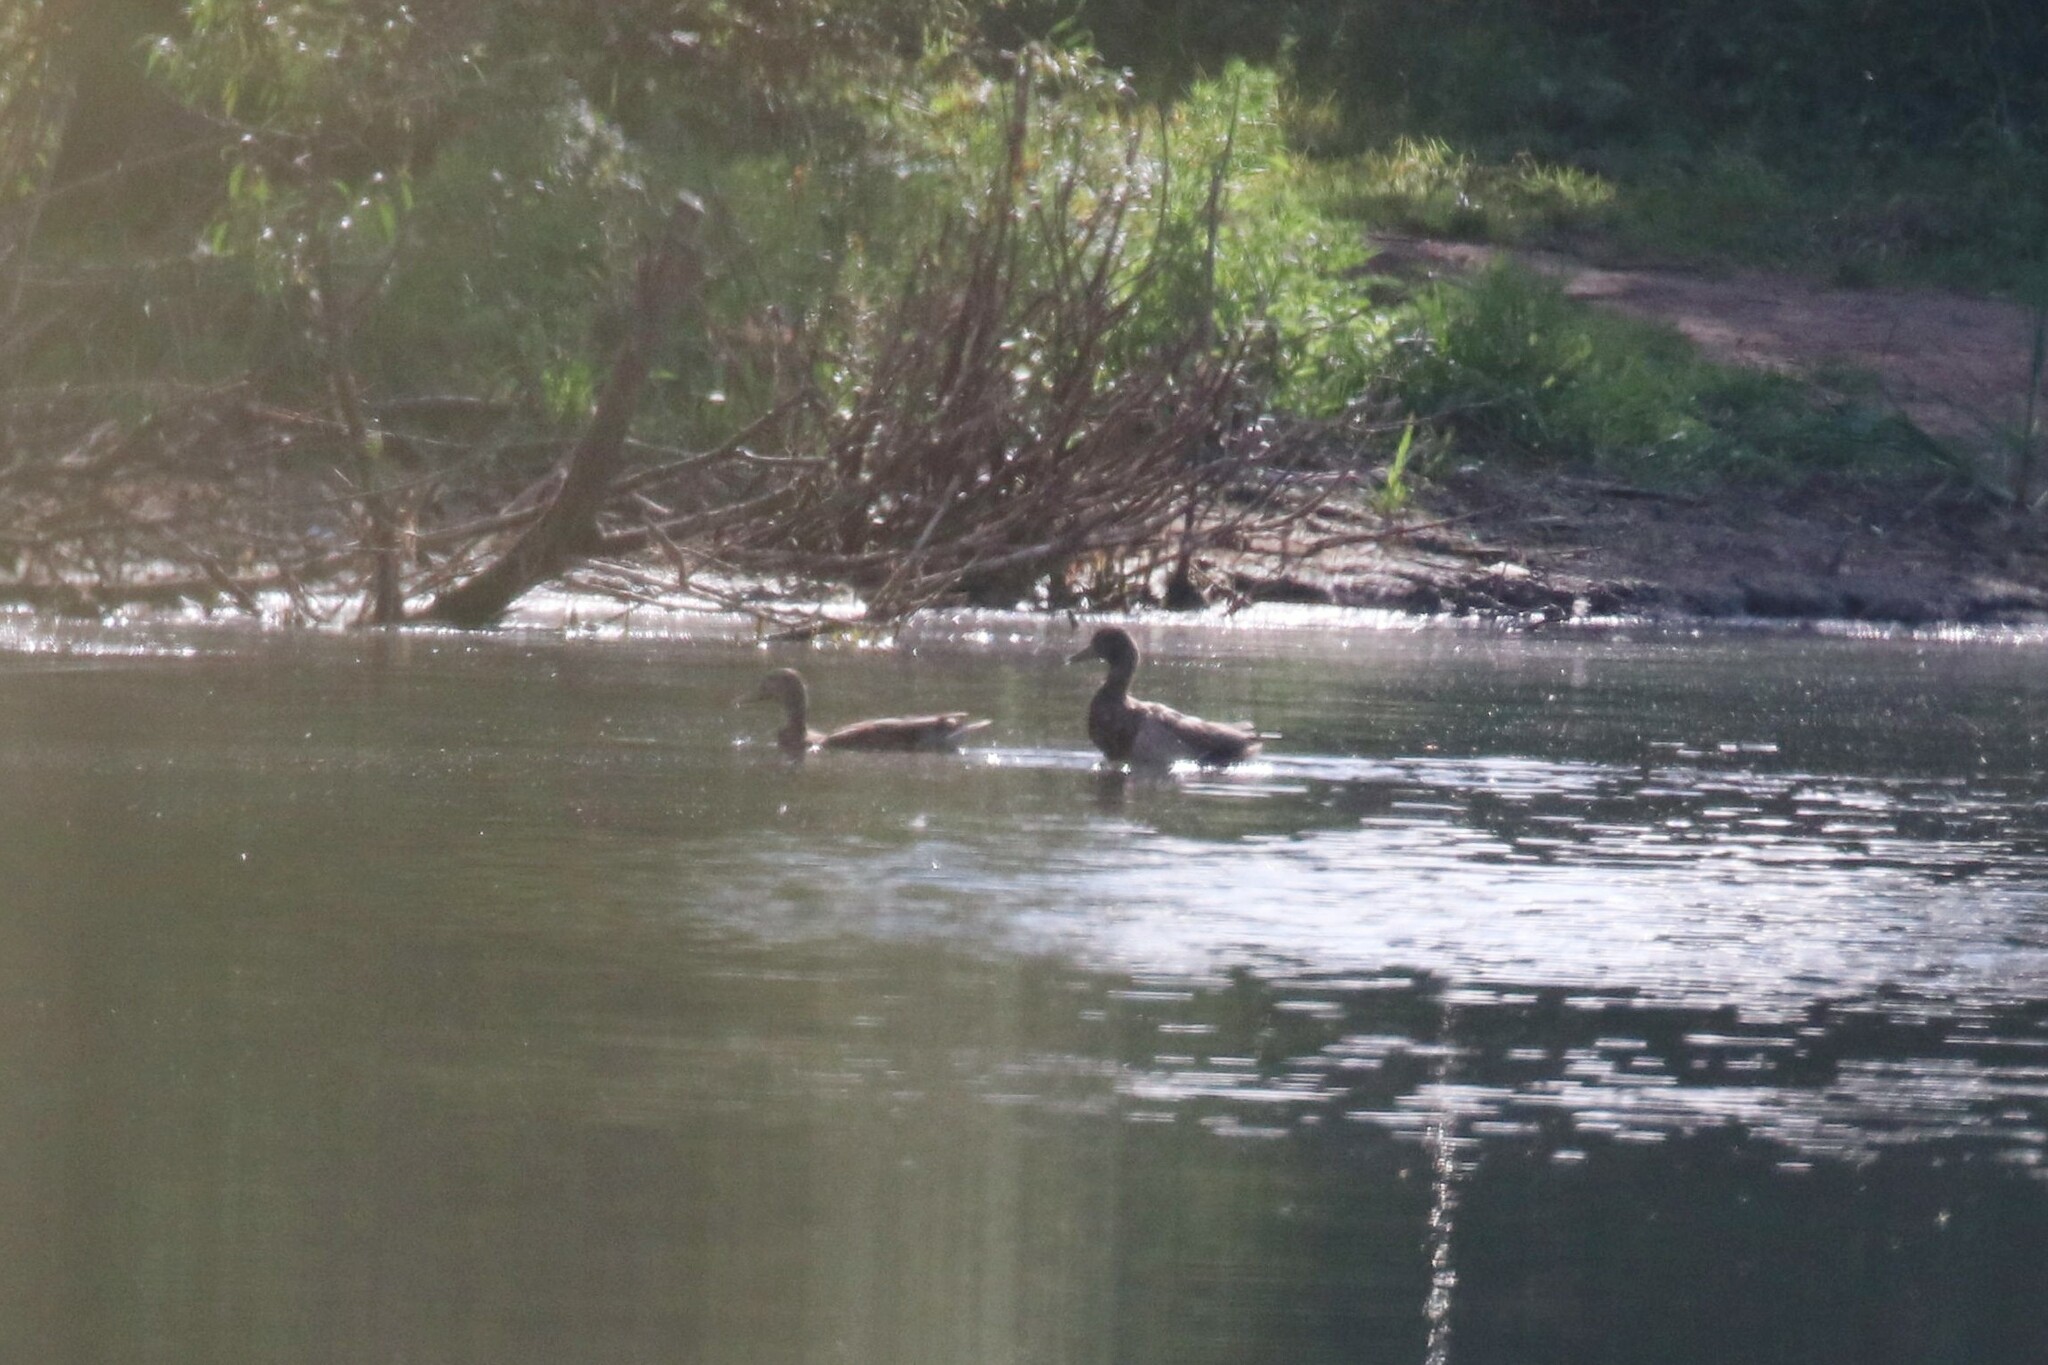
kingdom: Animalia
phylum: Chordata
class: Aves
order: Anseriformes
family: Anatidae
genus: Anas
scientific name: Anas platyrhynchos
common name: Mallard
